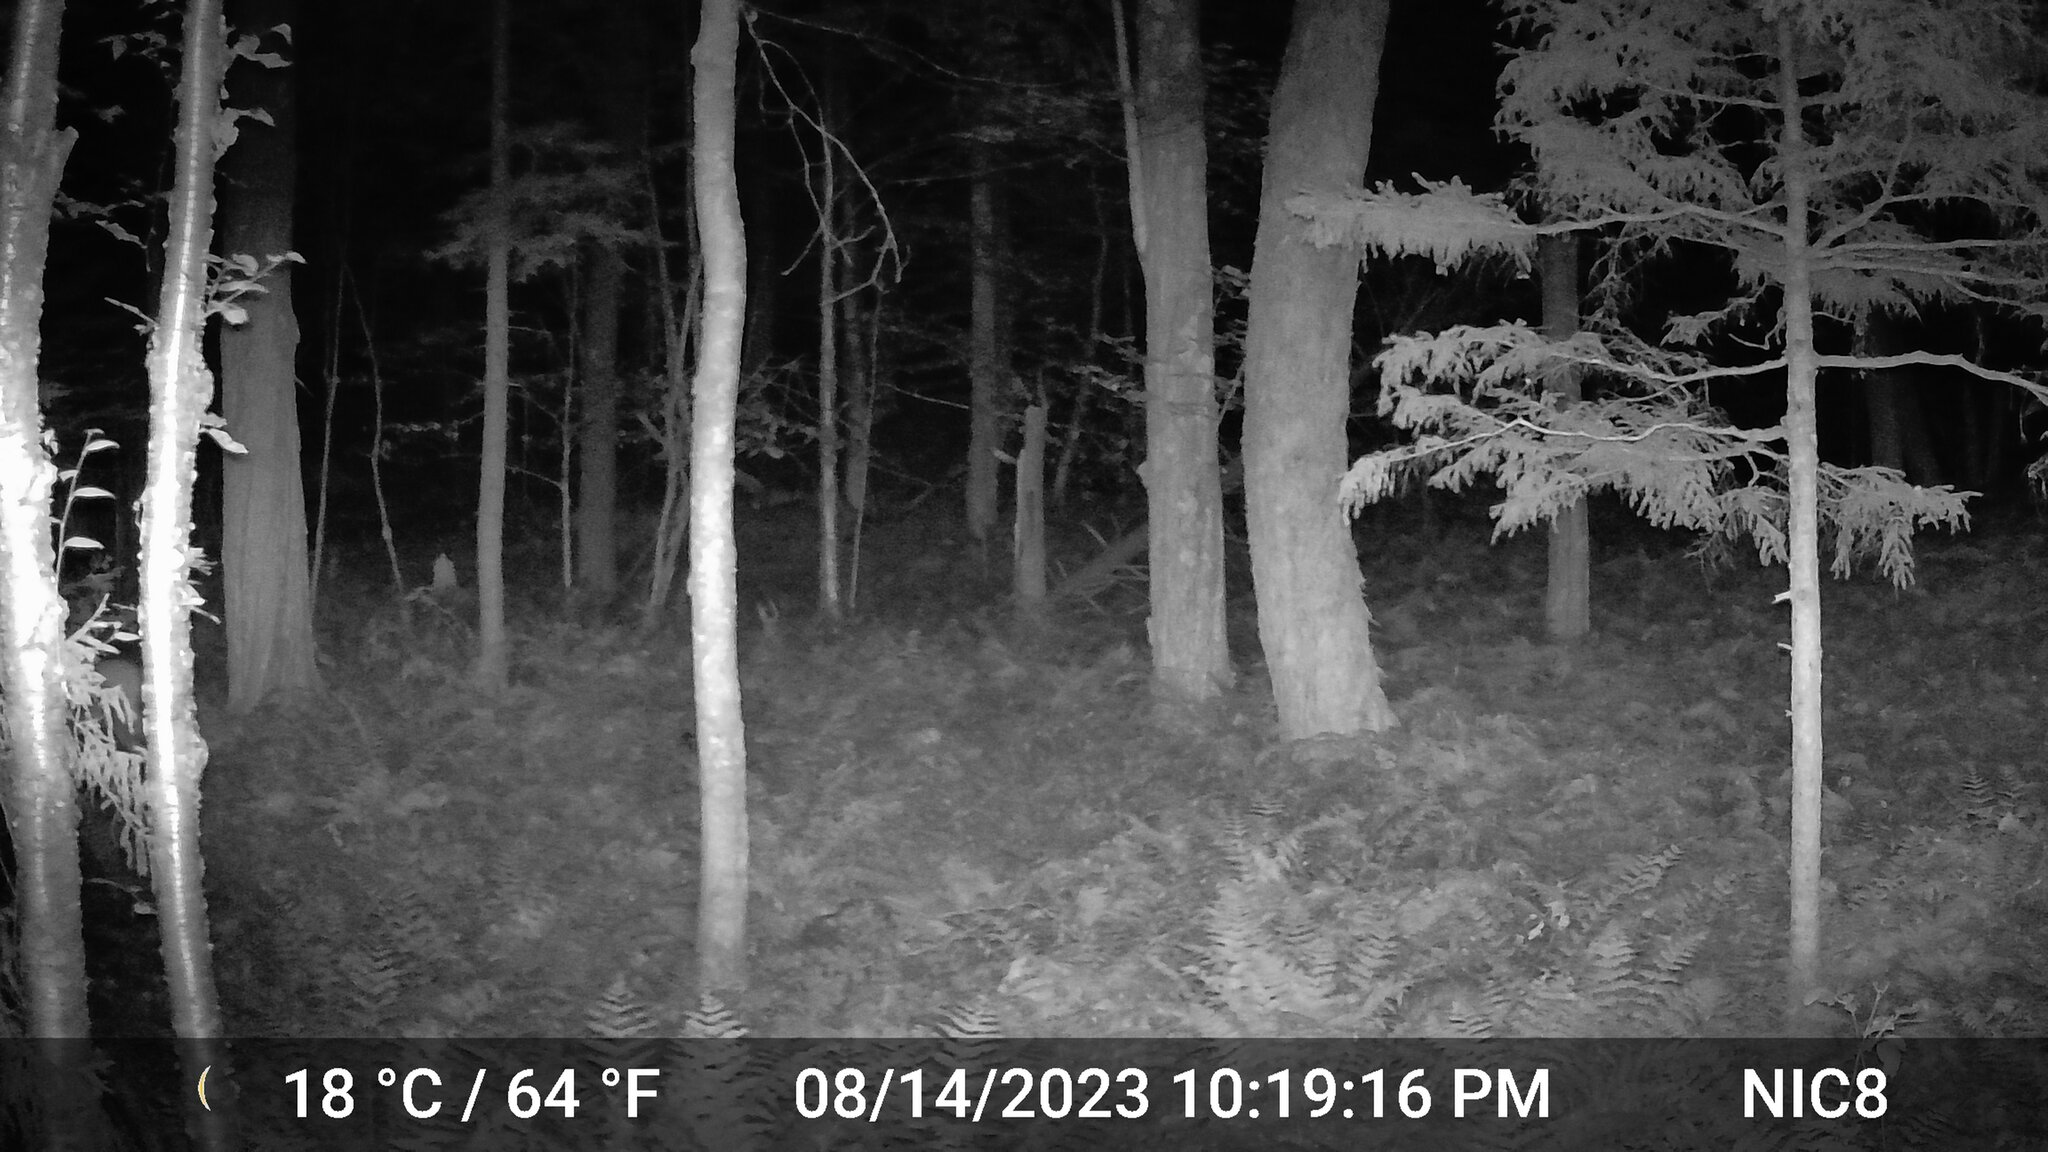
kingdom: Animalia
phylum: Chordata
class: Mammalia
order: Artiodactyla
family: Cervidae
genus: Odocoileus
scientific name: Odocoileus virginianus
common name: White-tailed deer
